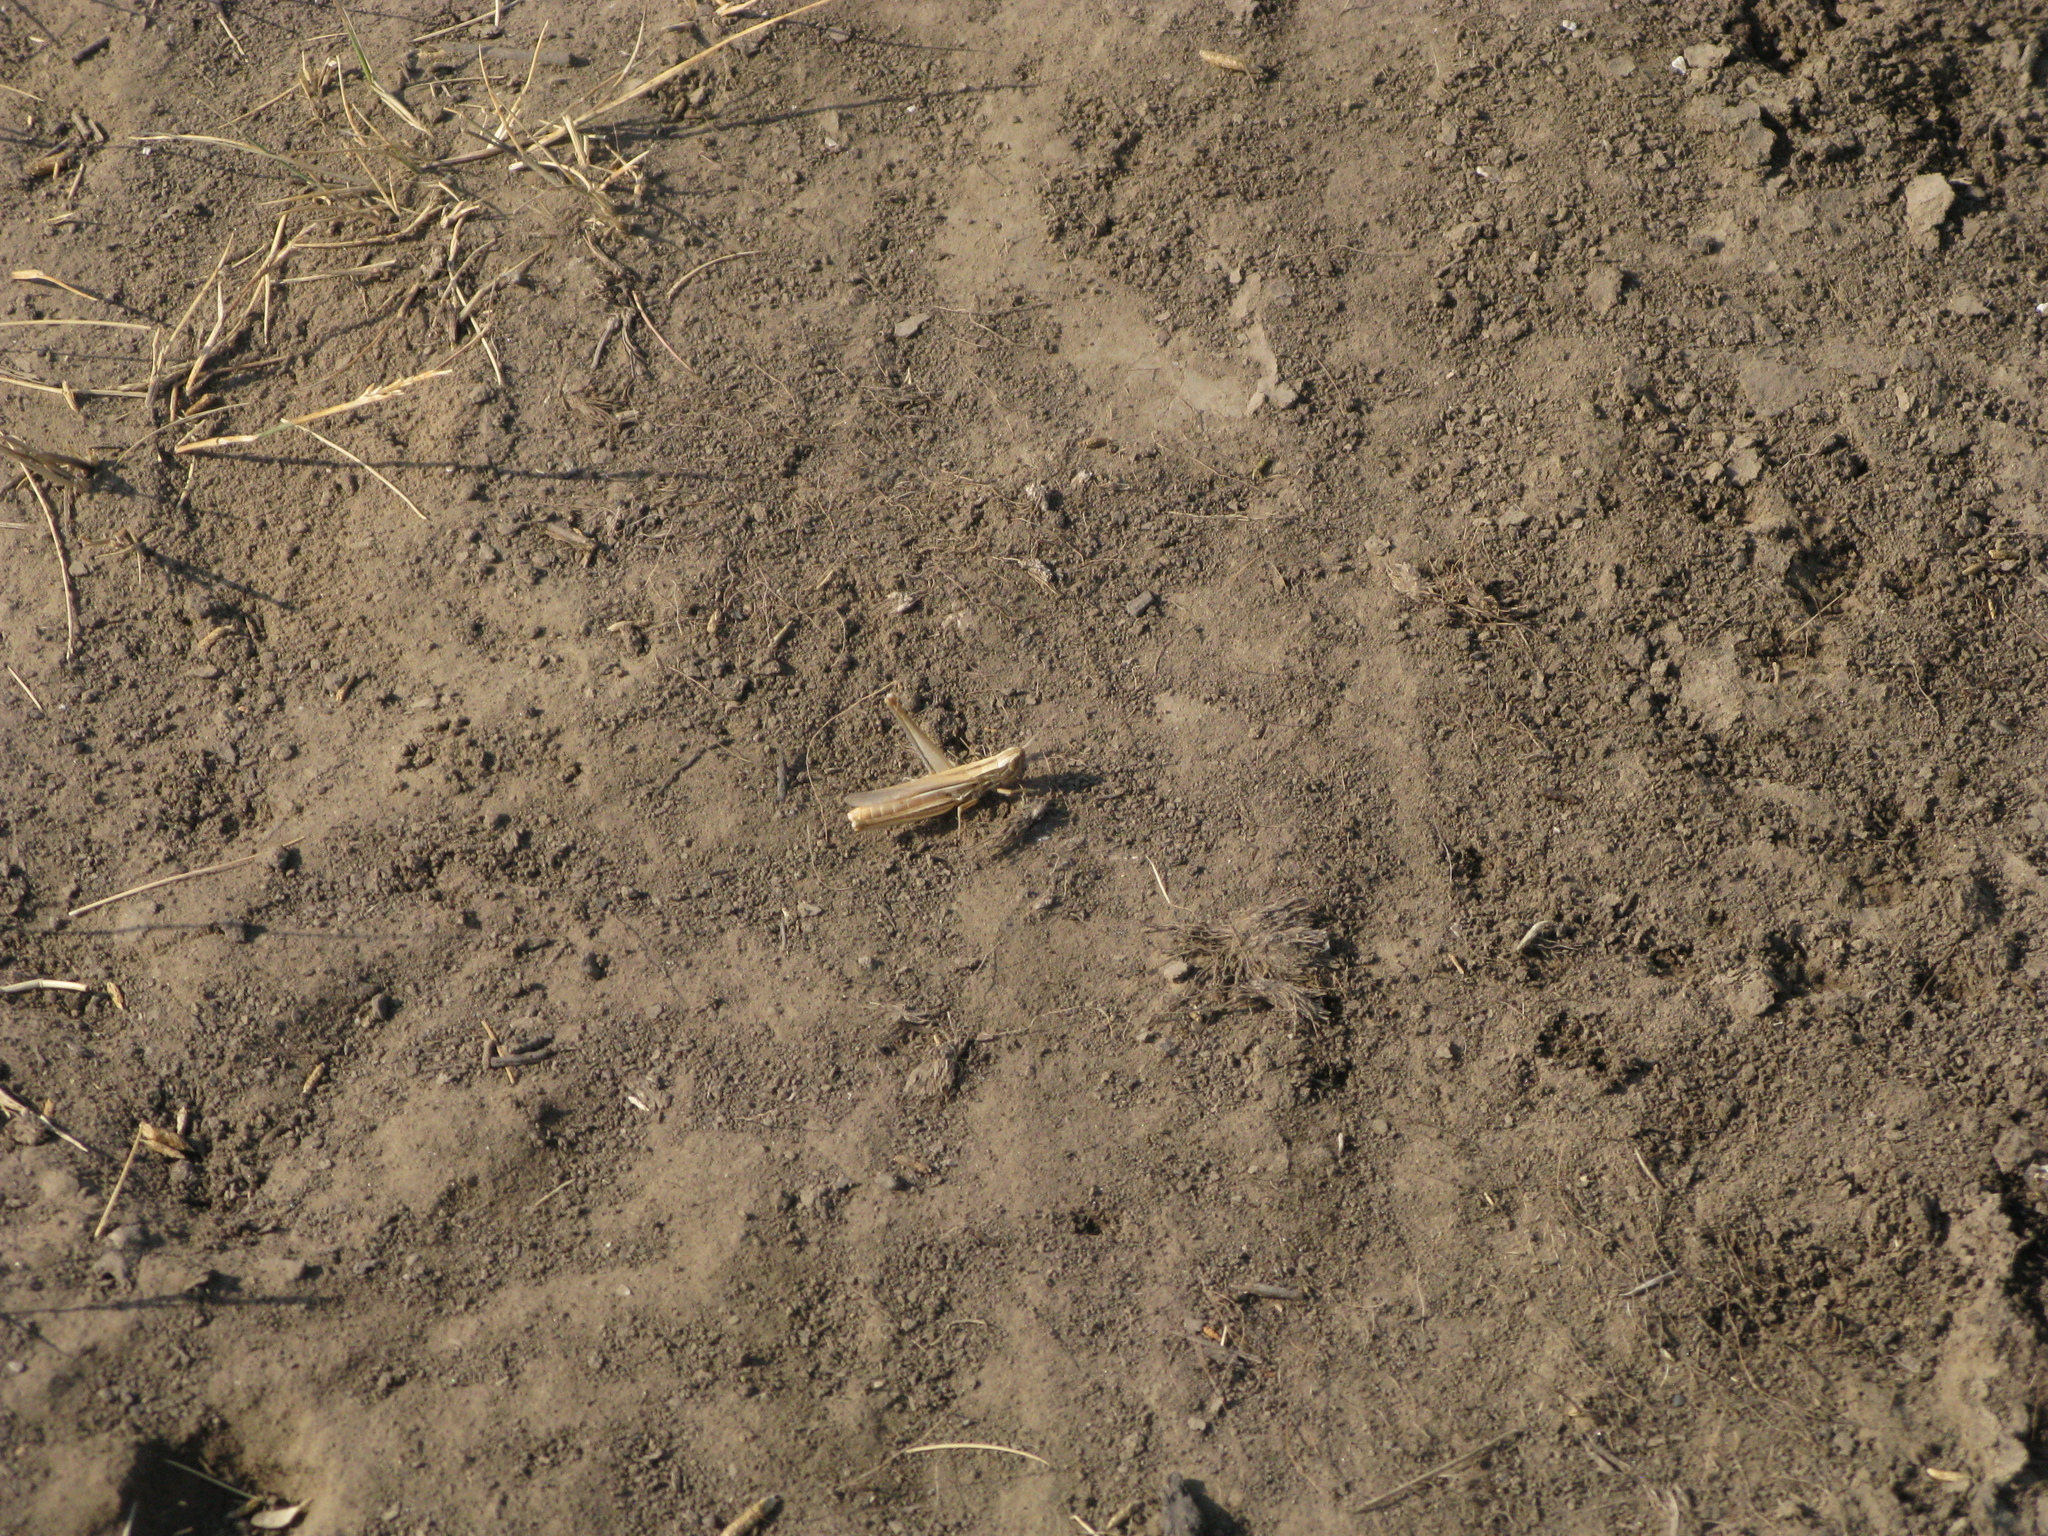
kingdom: Animalia
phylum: Arthropoda
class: Insecta
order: Orthoptera
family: Acrididae
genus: Euchorthippus
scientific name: Euchorthippus pulvinatus
